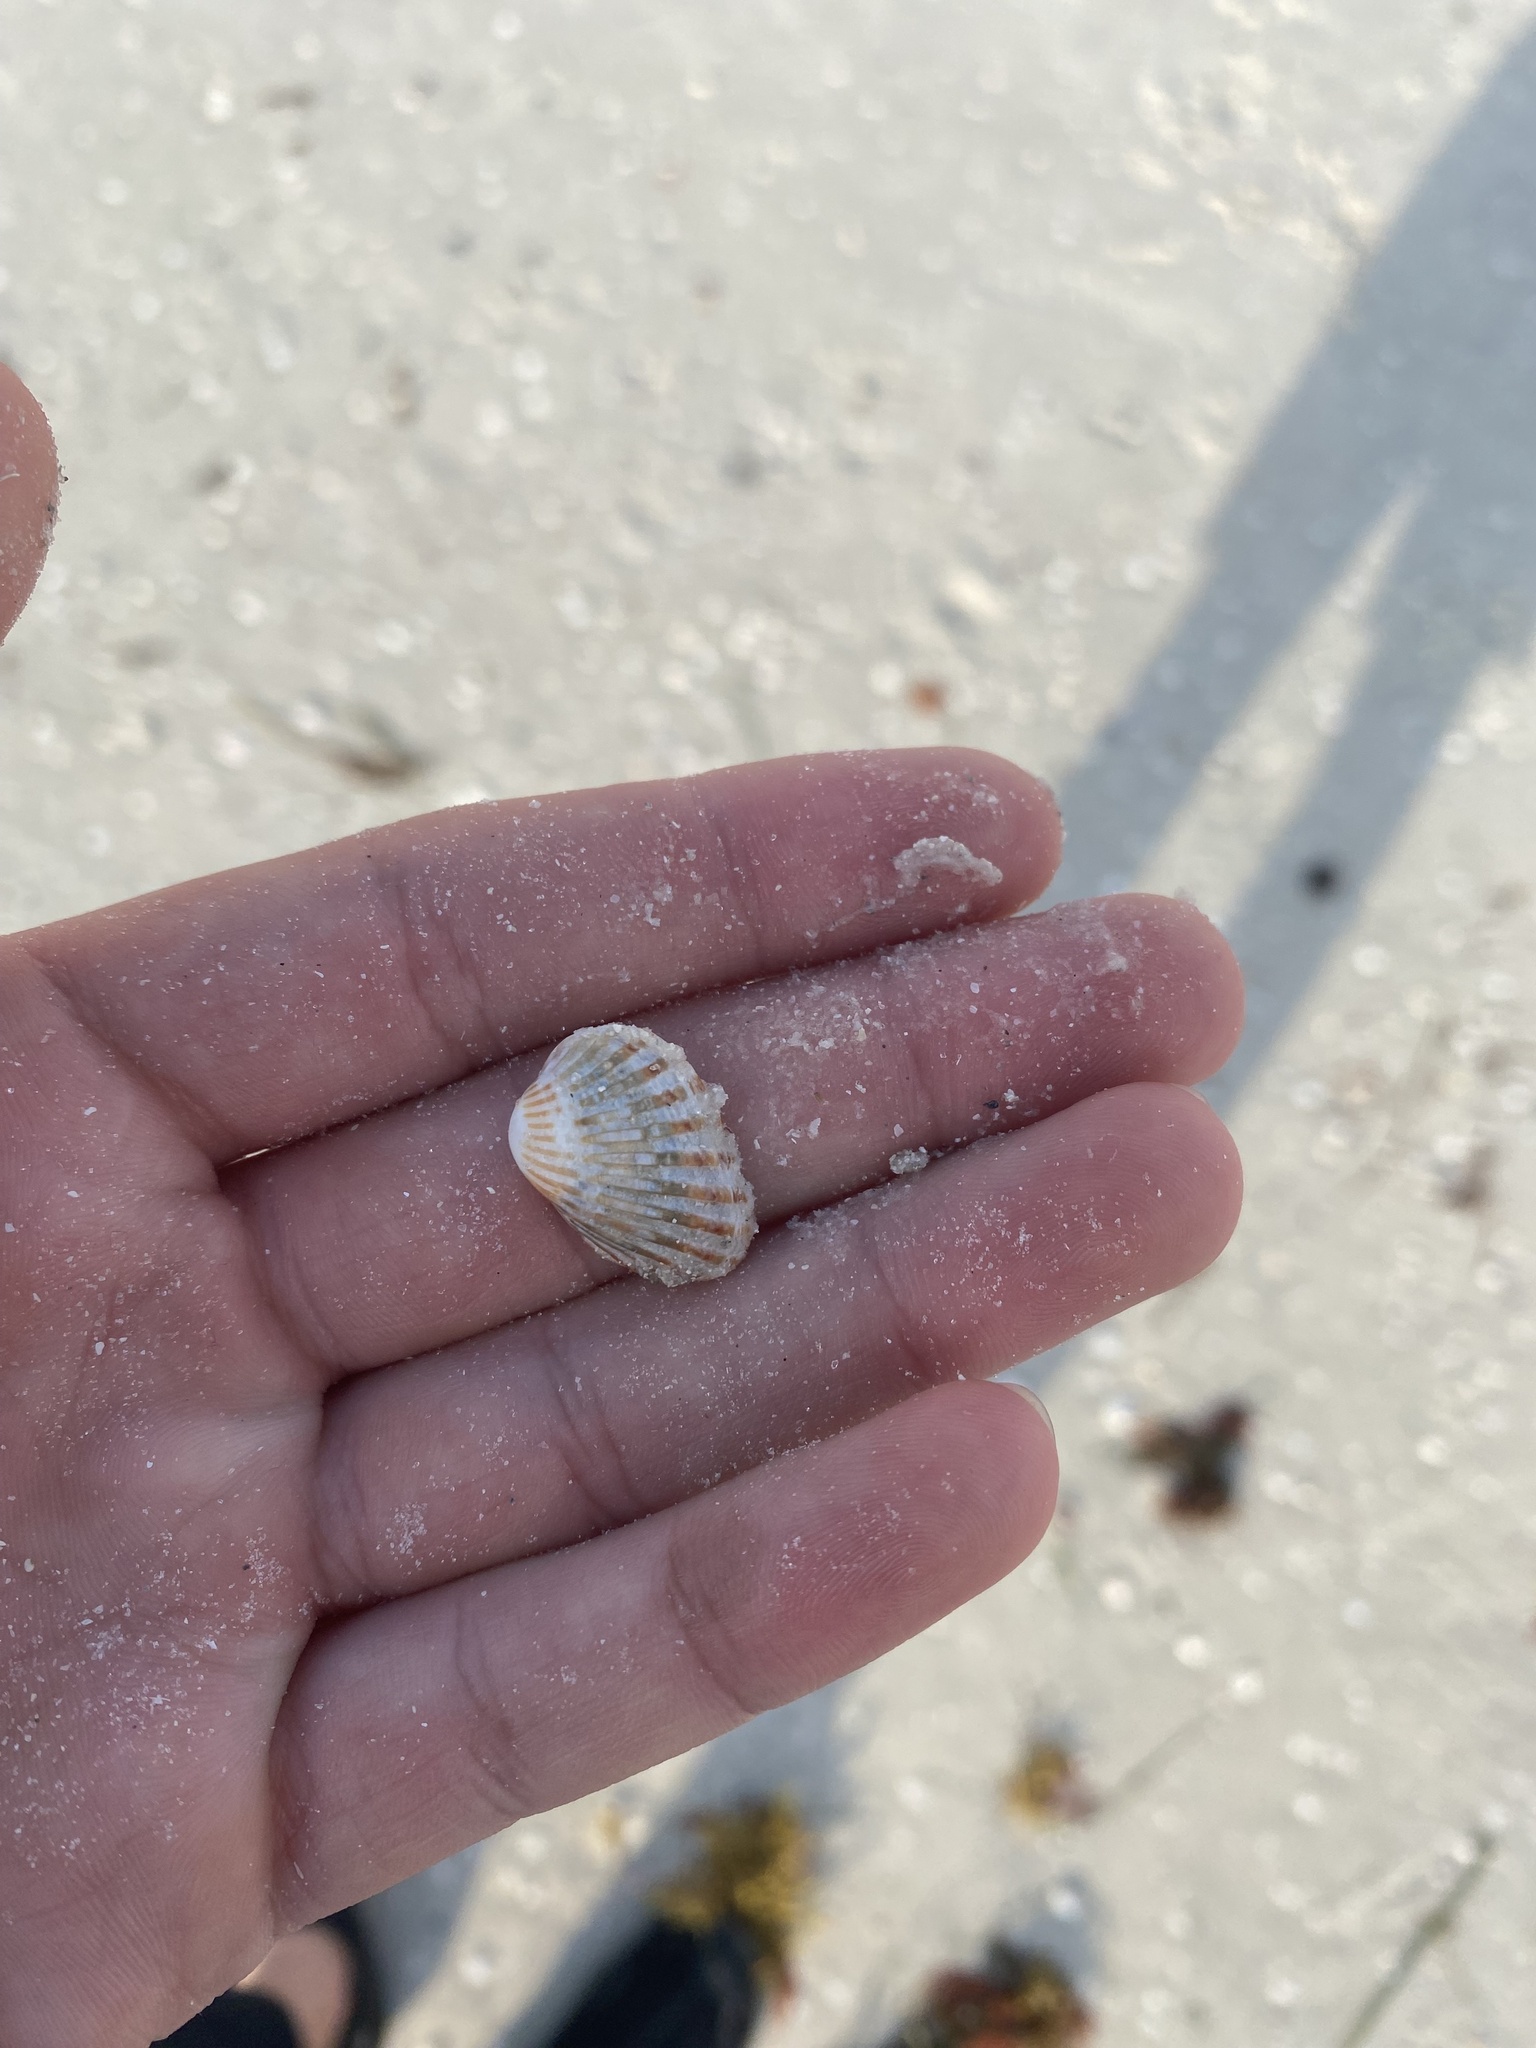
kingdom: Animalia
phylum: Mollusca
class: Bivalvia
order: Carditida
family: Carditidae
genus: Cardites
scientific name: Cardites floridanus
